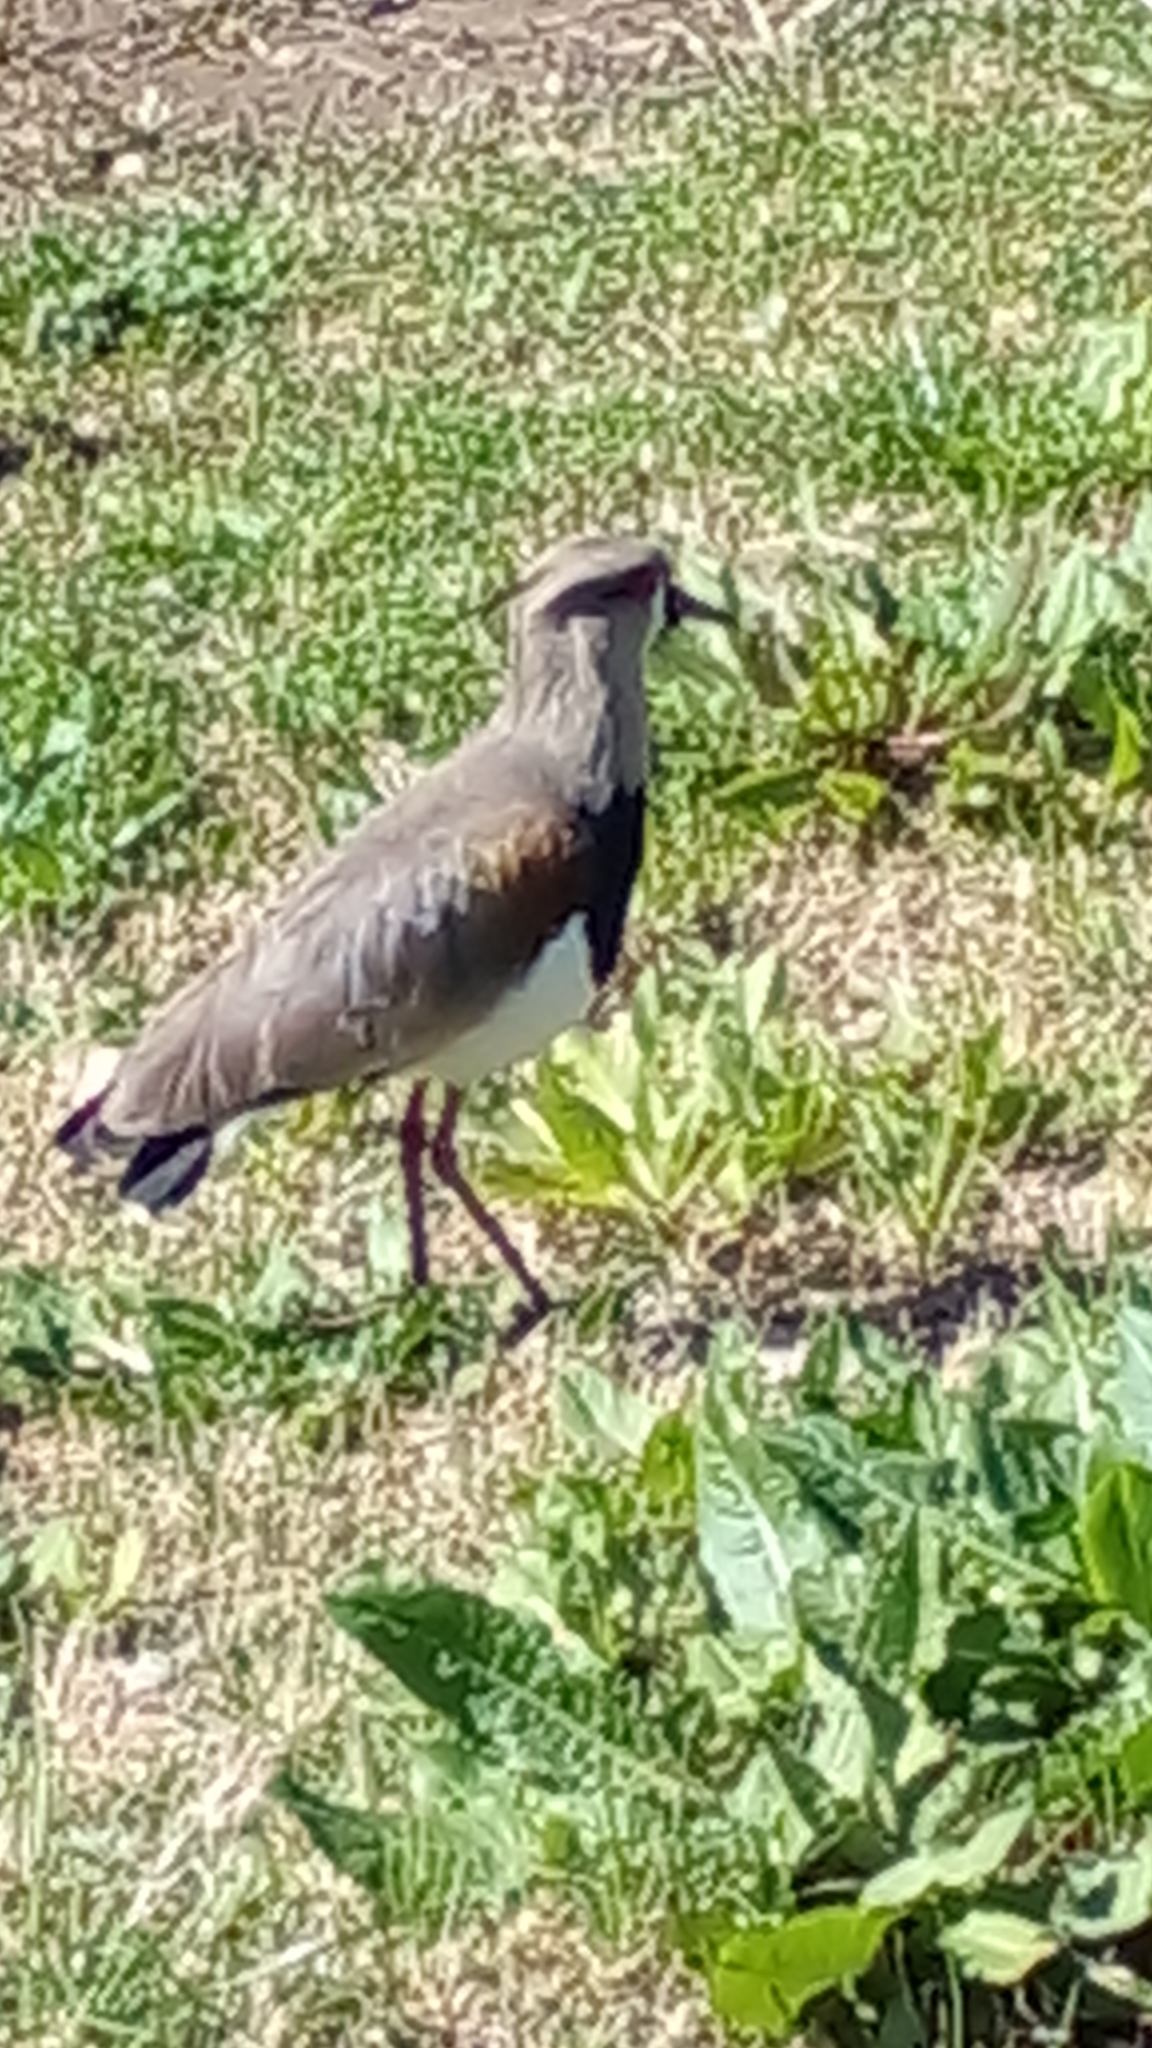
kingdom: Animalia
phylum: Chordata
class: Aves
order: Charadriiformes
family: Charadriidae
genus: Vanellus
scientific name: Vanellus chilensis
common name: Southern lapwing
